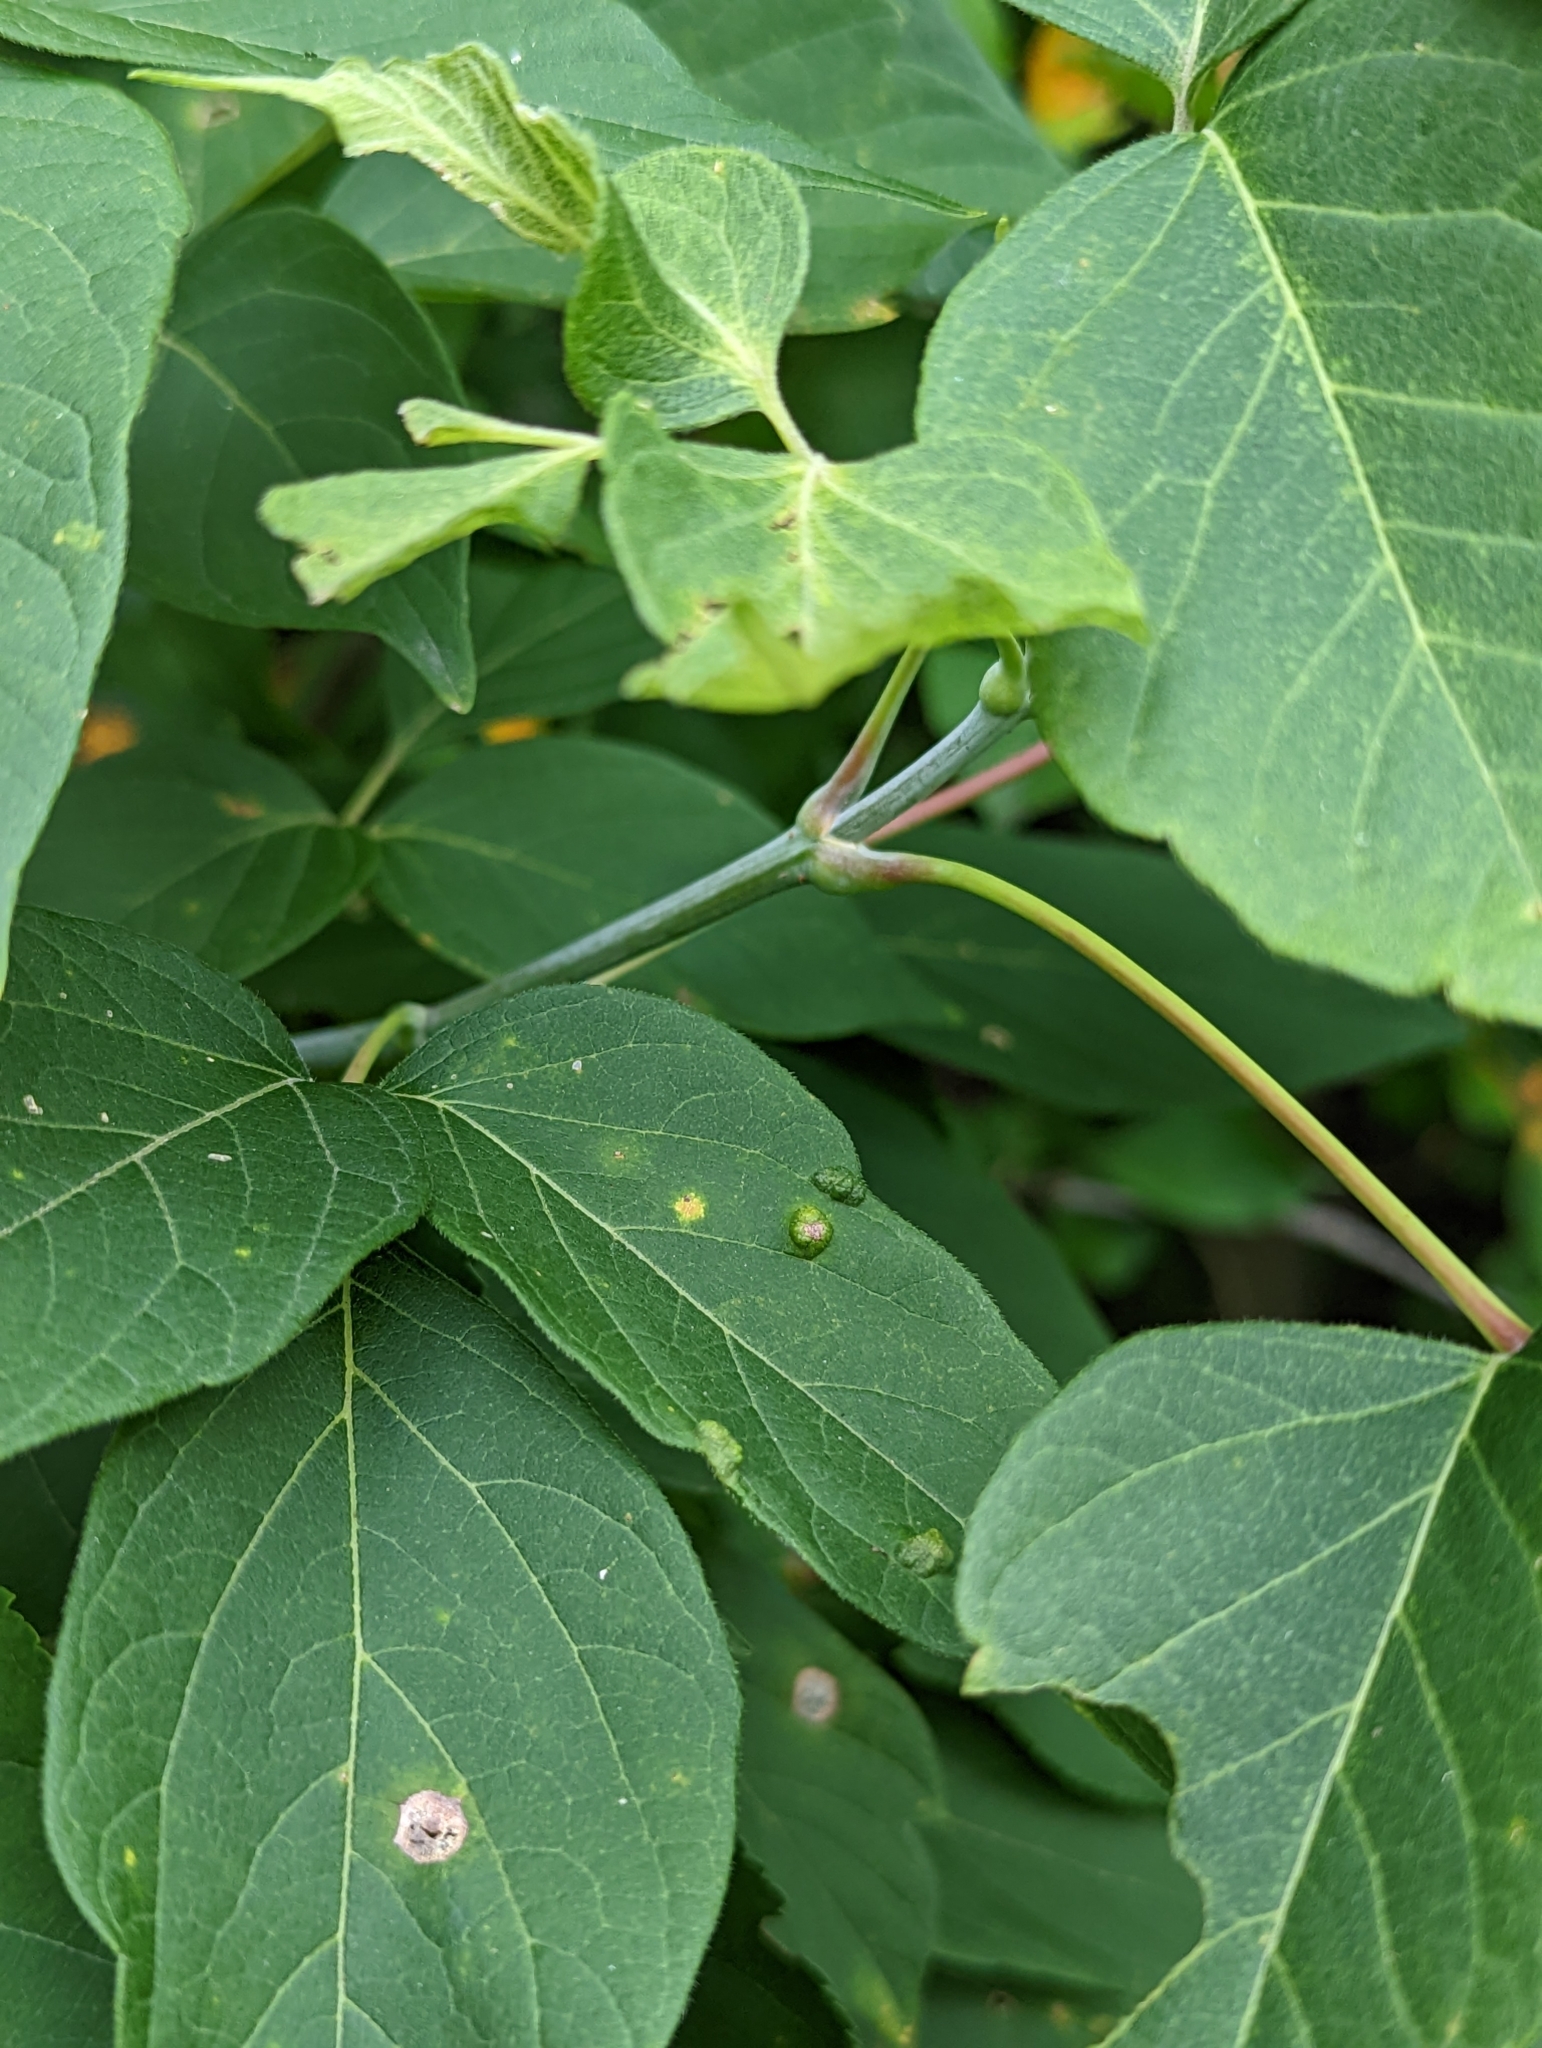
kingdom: Animalia
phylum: Arthropoda
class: Arachnida
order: Trombidiformes
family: Eriophyidae
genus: Aceria
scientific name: Aceria
